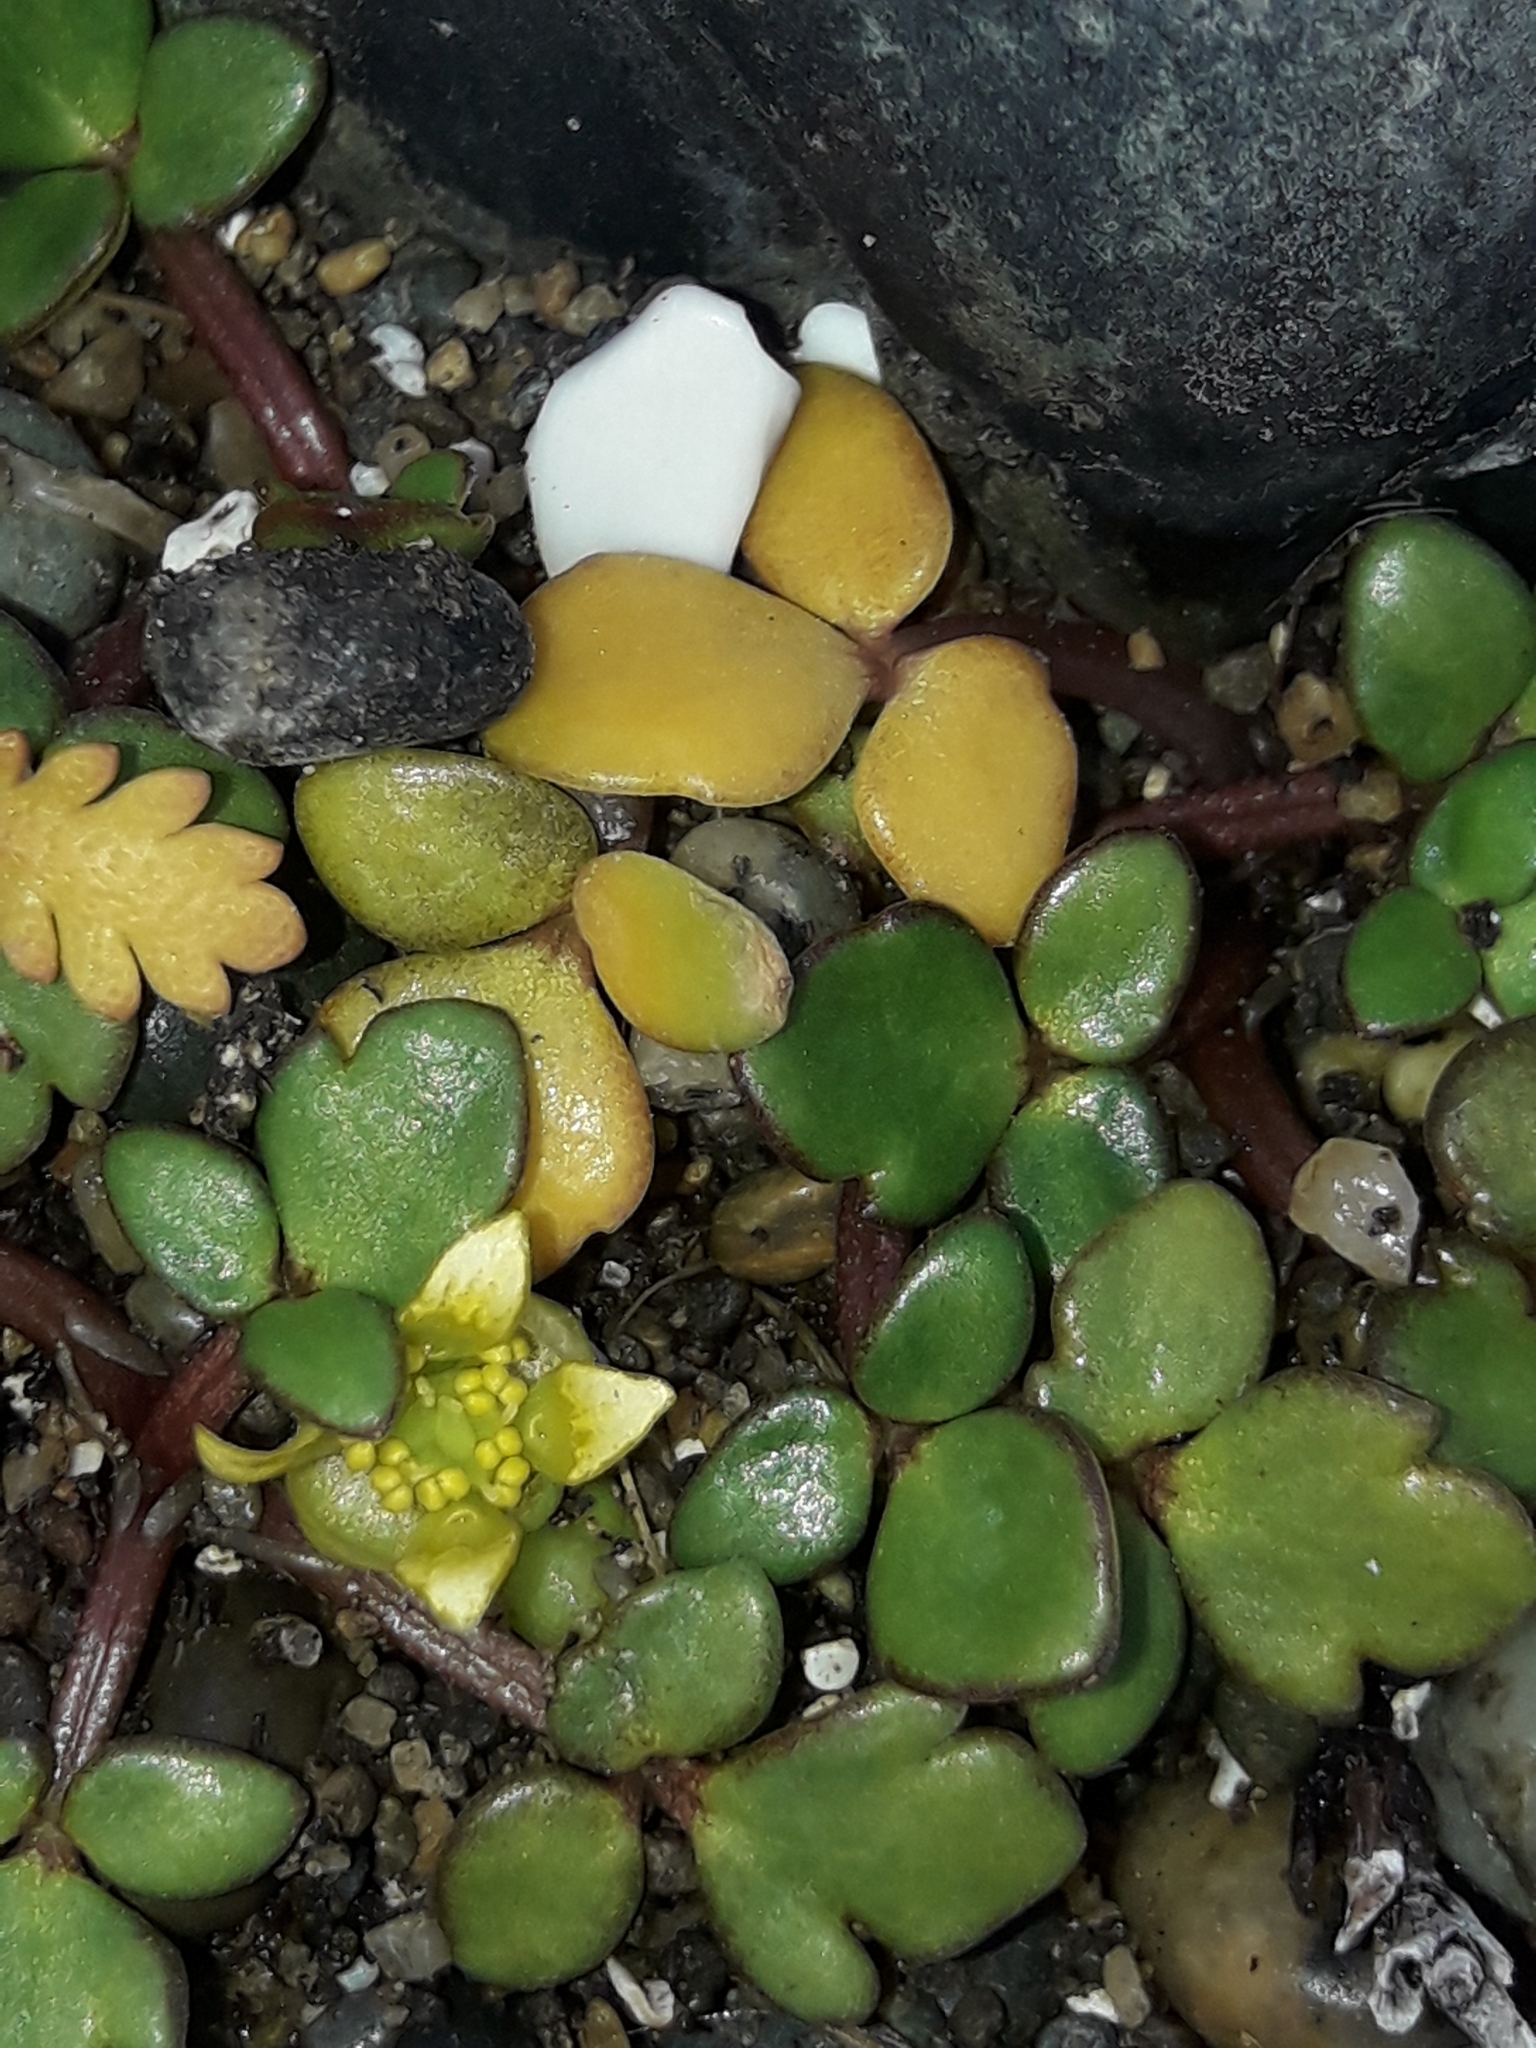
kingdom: Plantae
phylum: Tracheophyta
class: Magnoliopsida
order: Ranunculales
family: Ranunculaceae
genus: Ranunculus
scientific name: Ranunculus acaulis
